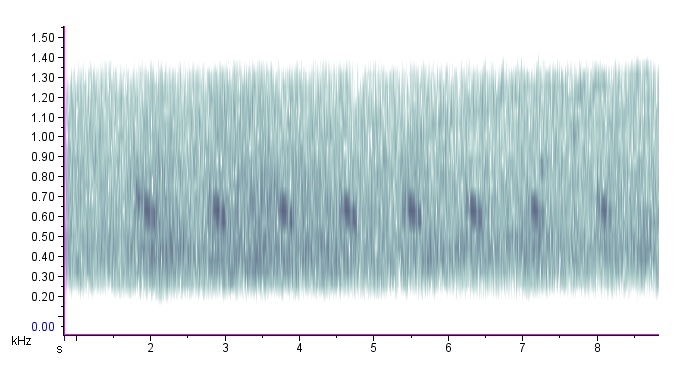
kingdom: Animalia
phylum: Chordata
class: Aves
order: Cuculiformes
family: Cuculidae
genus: Coccyzus
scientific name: Coccyzus americanus
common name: Yellow-billed cuckoo
